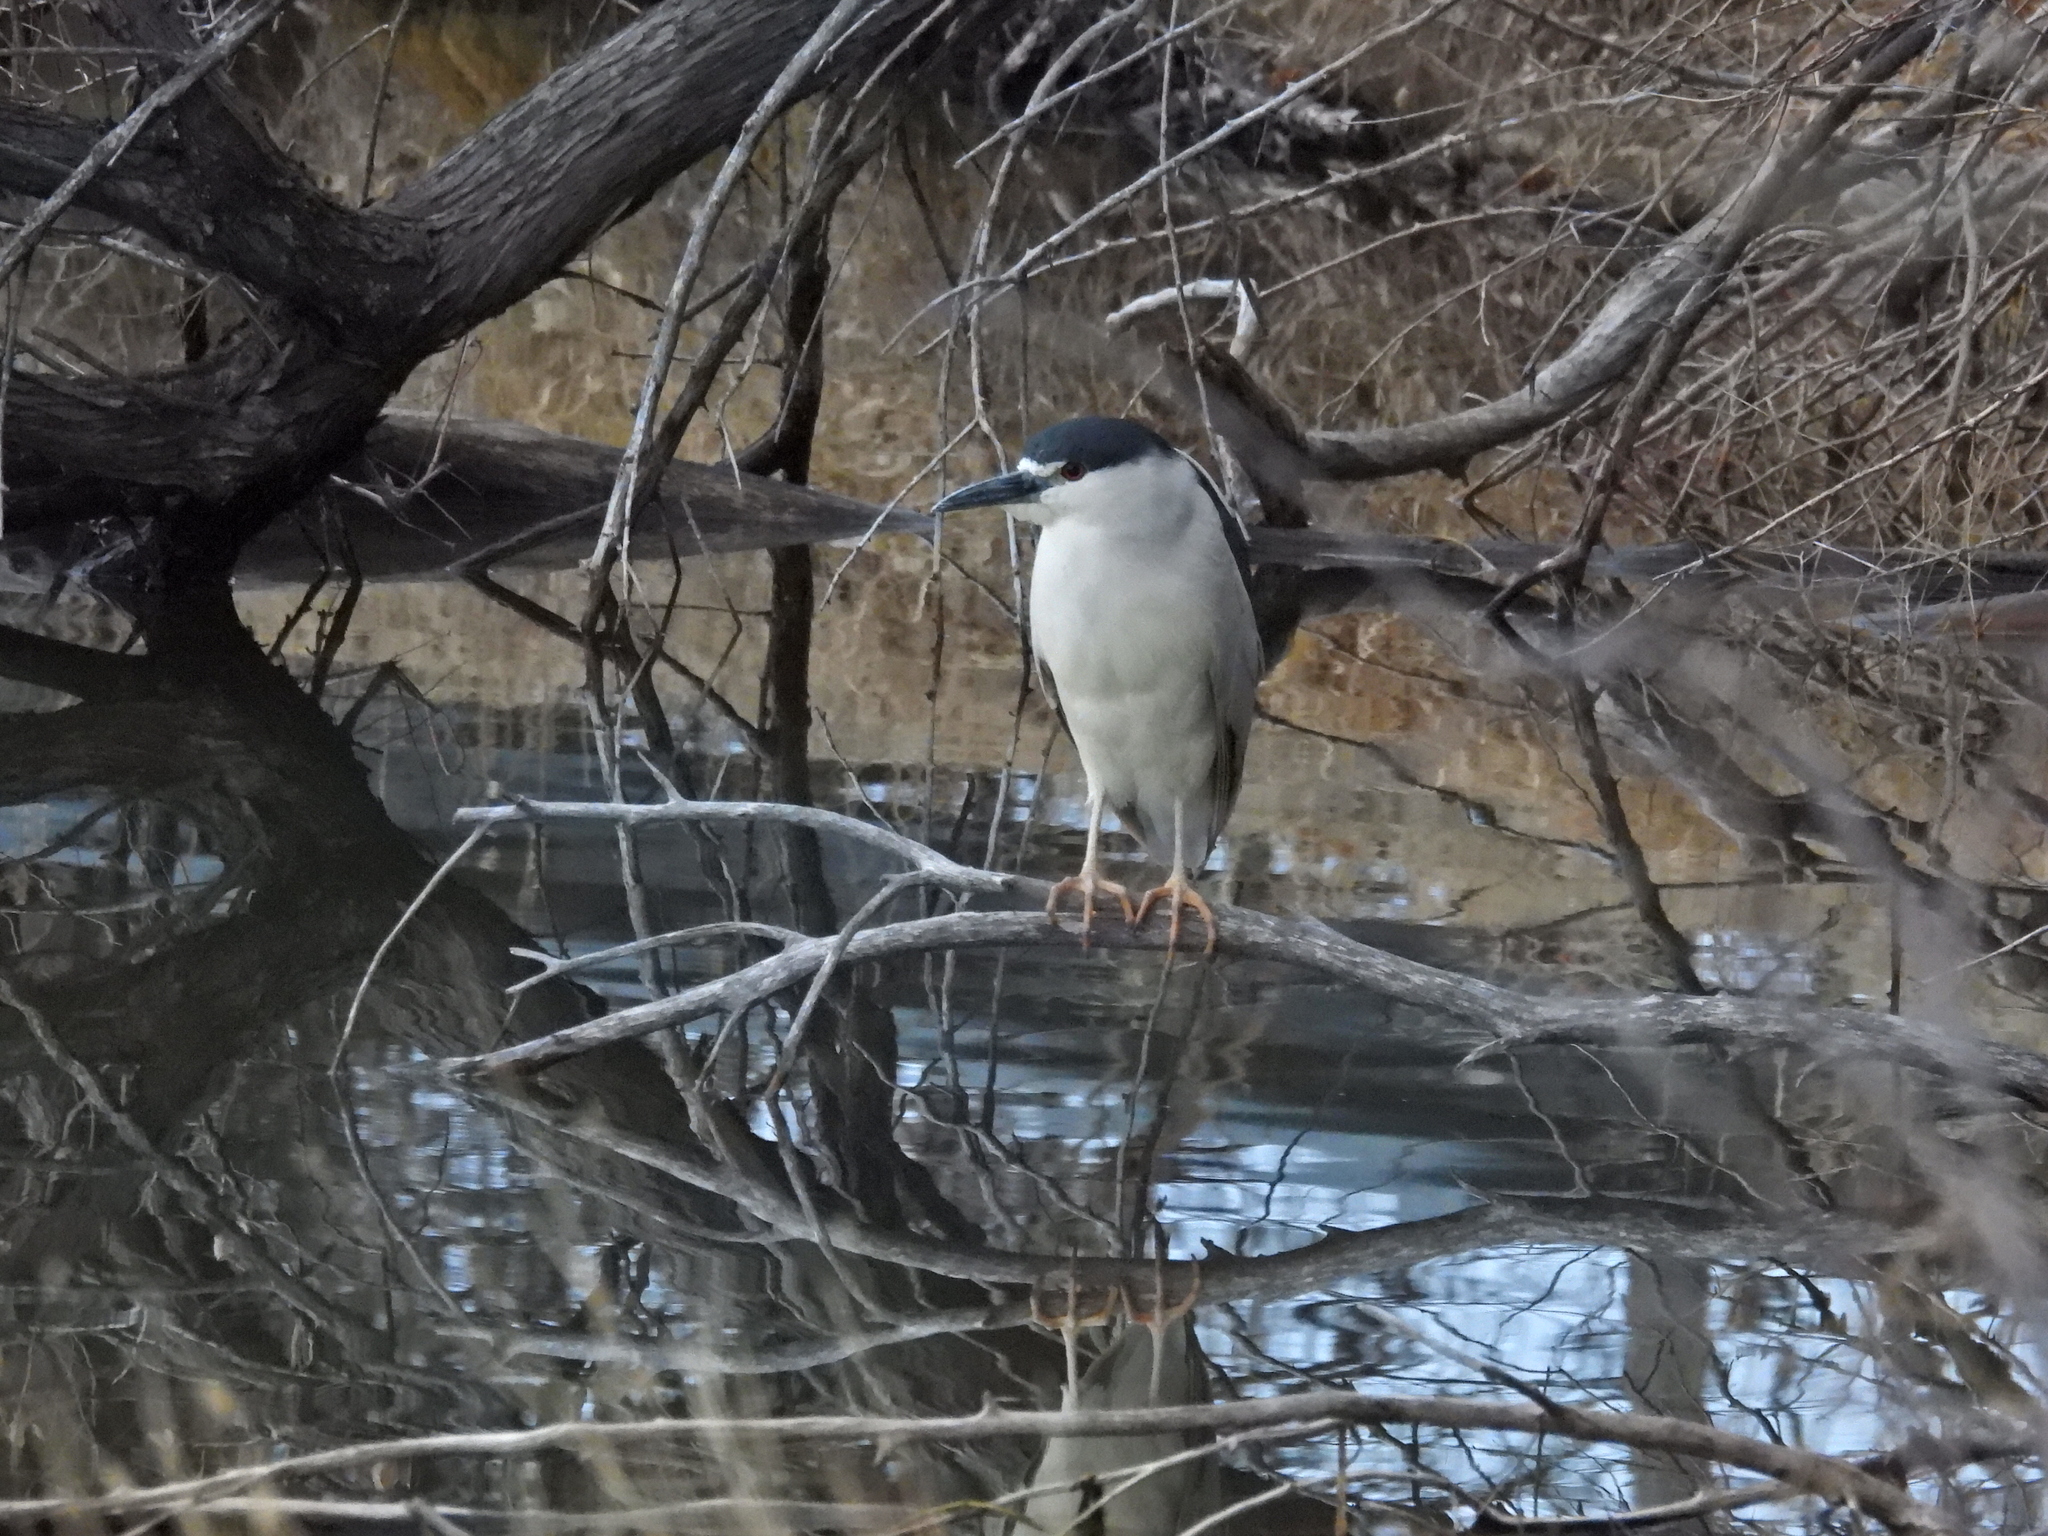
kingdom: Animalia
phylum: Chordata
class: Aves
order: Pelecaniformes
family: Ardeidae
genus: Nycticorax
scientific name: Nycticorax nycticorax
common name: Black-crowned night heron
